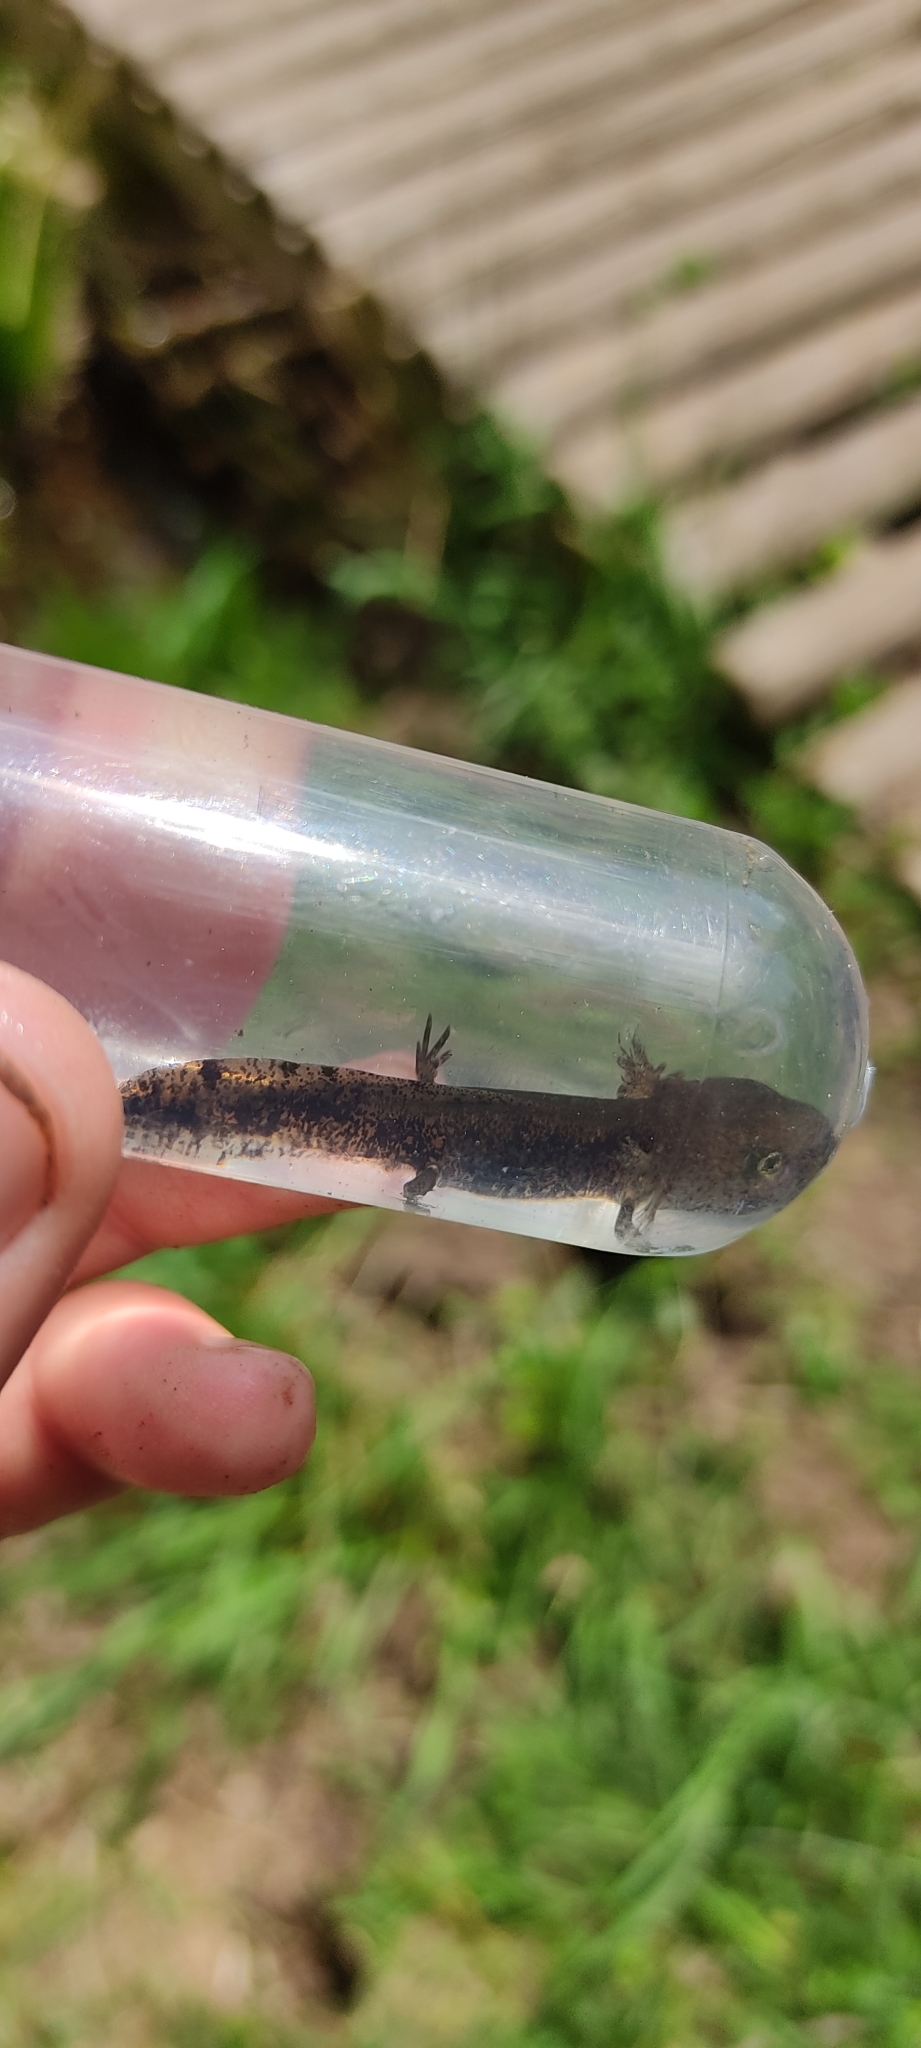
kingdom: Animalia
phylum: Chordata
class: Amphibia
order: Caudata
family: Salamandridae
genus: Salamandra
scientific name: Salamandra salamandra
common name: Fire salamander
